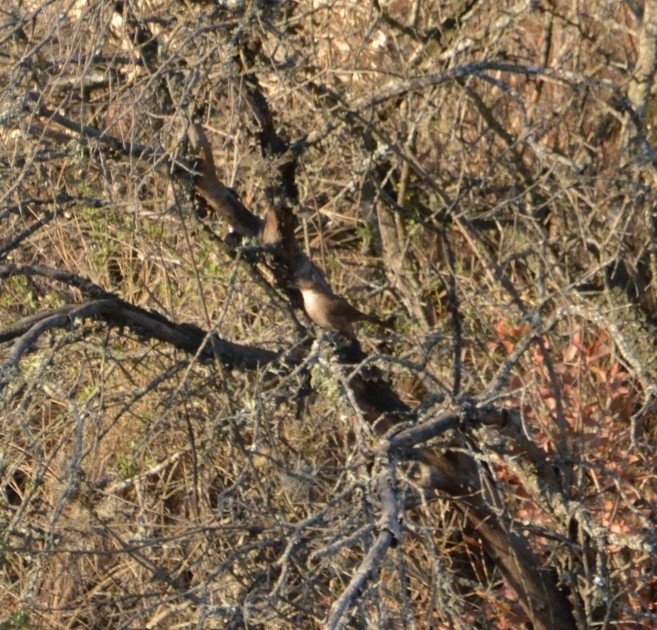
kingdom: Animalia
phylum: Chordata
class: Aves
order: Passeriformes
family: Furnariidae
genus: Upucerthia
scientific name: Upucerthia certhioides
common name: Chaco earthcreeper
